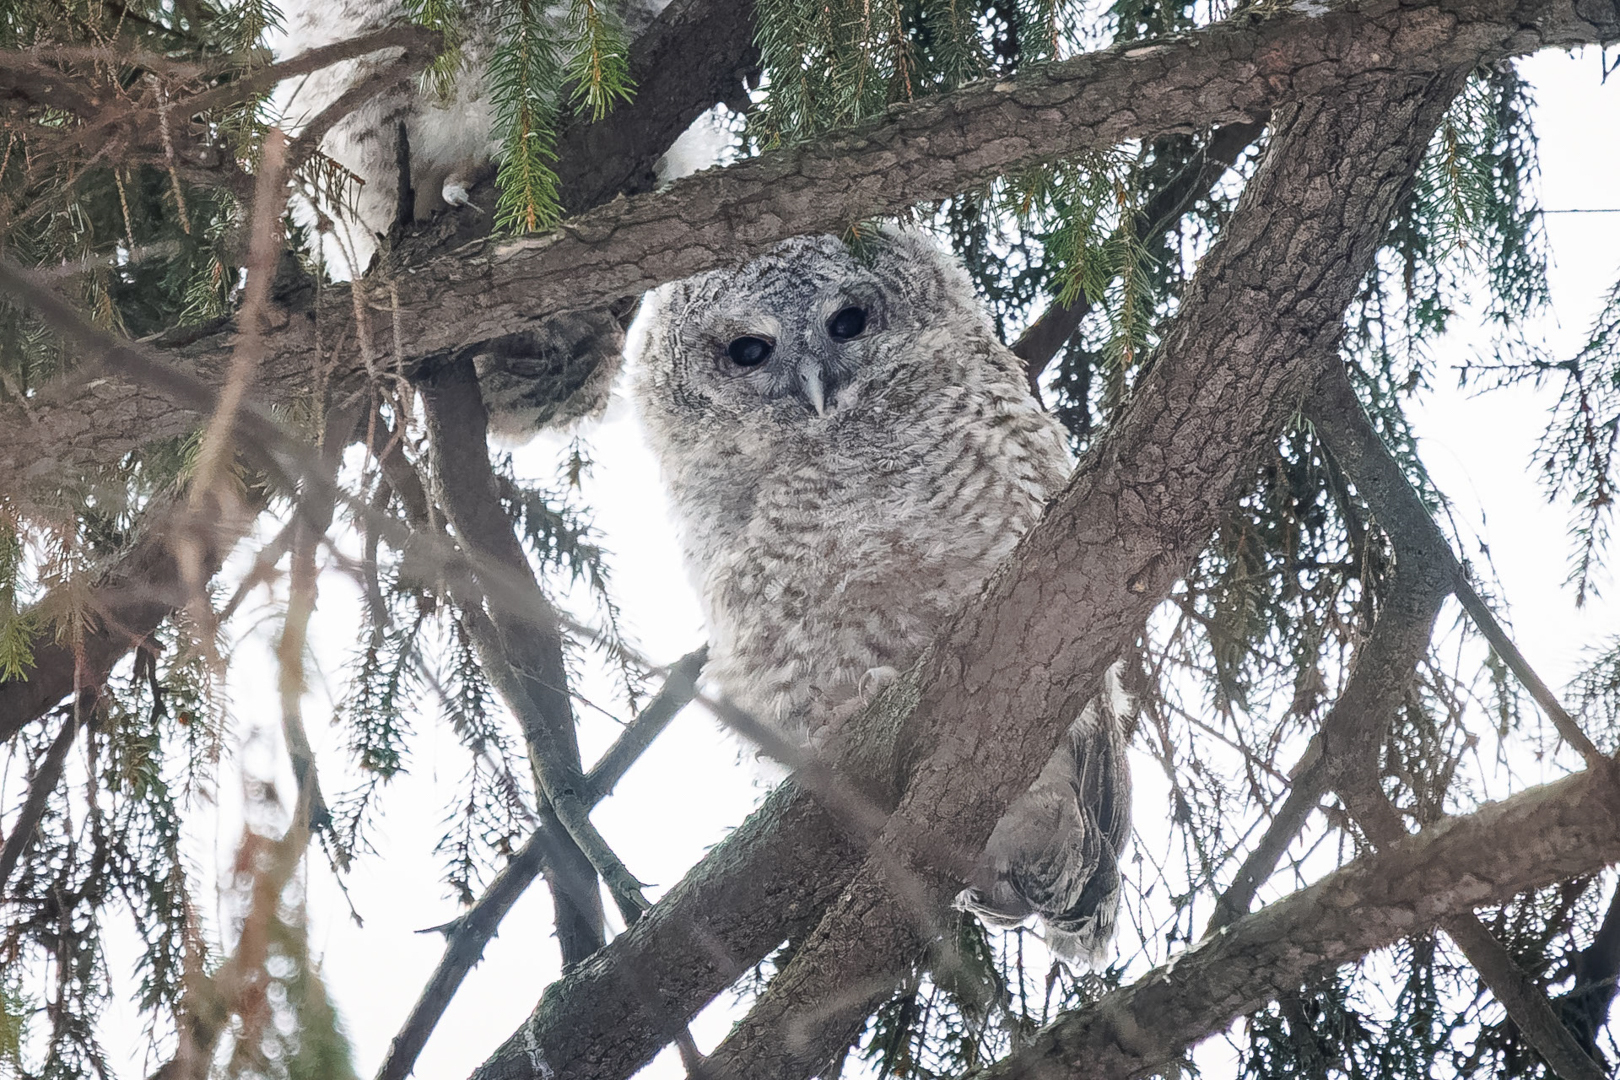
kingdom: Animalia
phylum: Chordata
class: Aves
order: Strigiformes
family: Strigidae
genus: Strix
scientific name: Strix aluco
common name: Tawny owl
